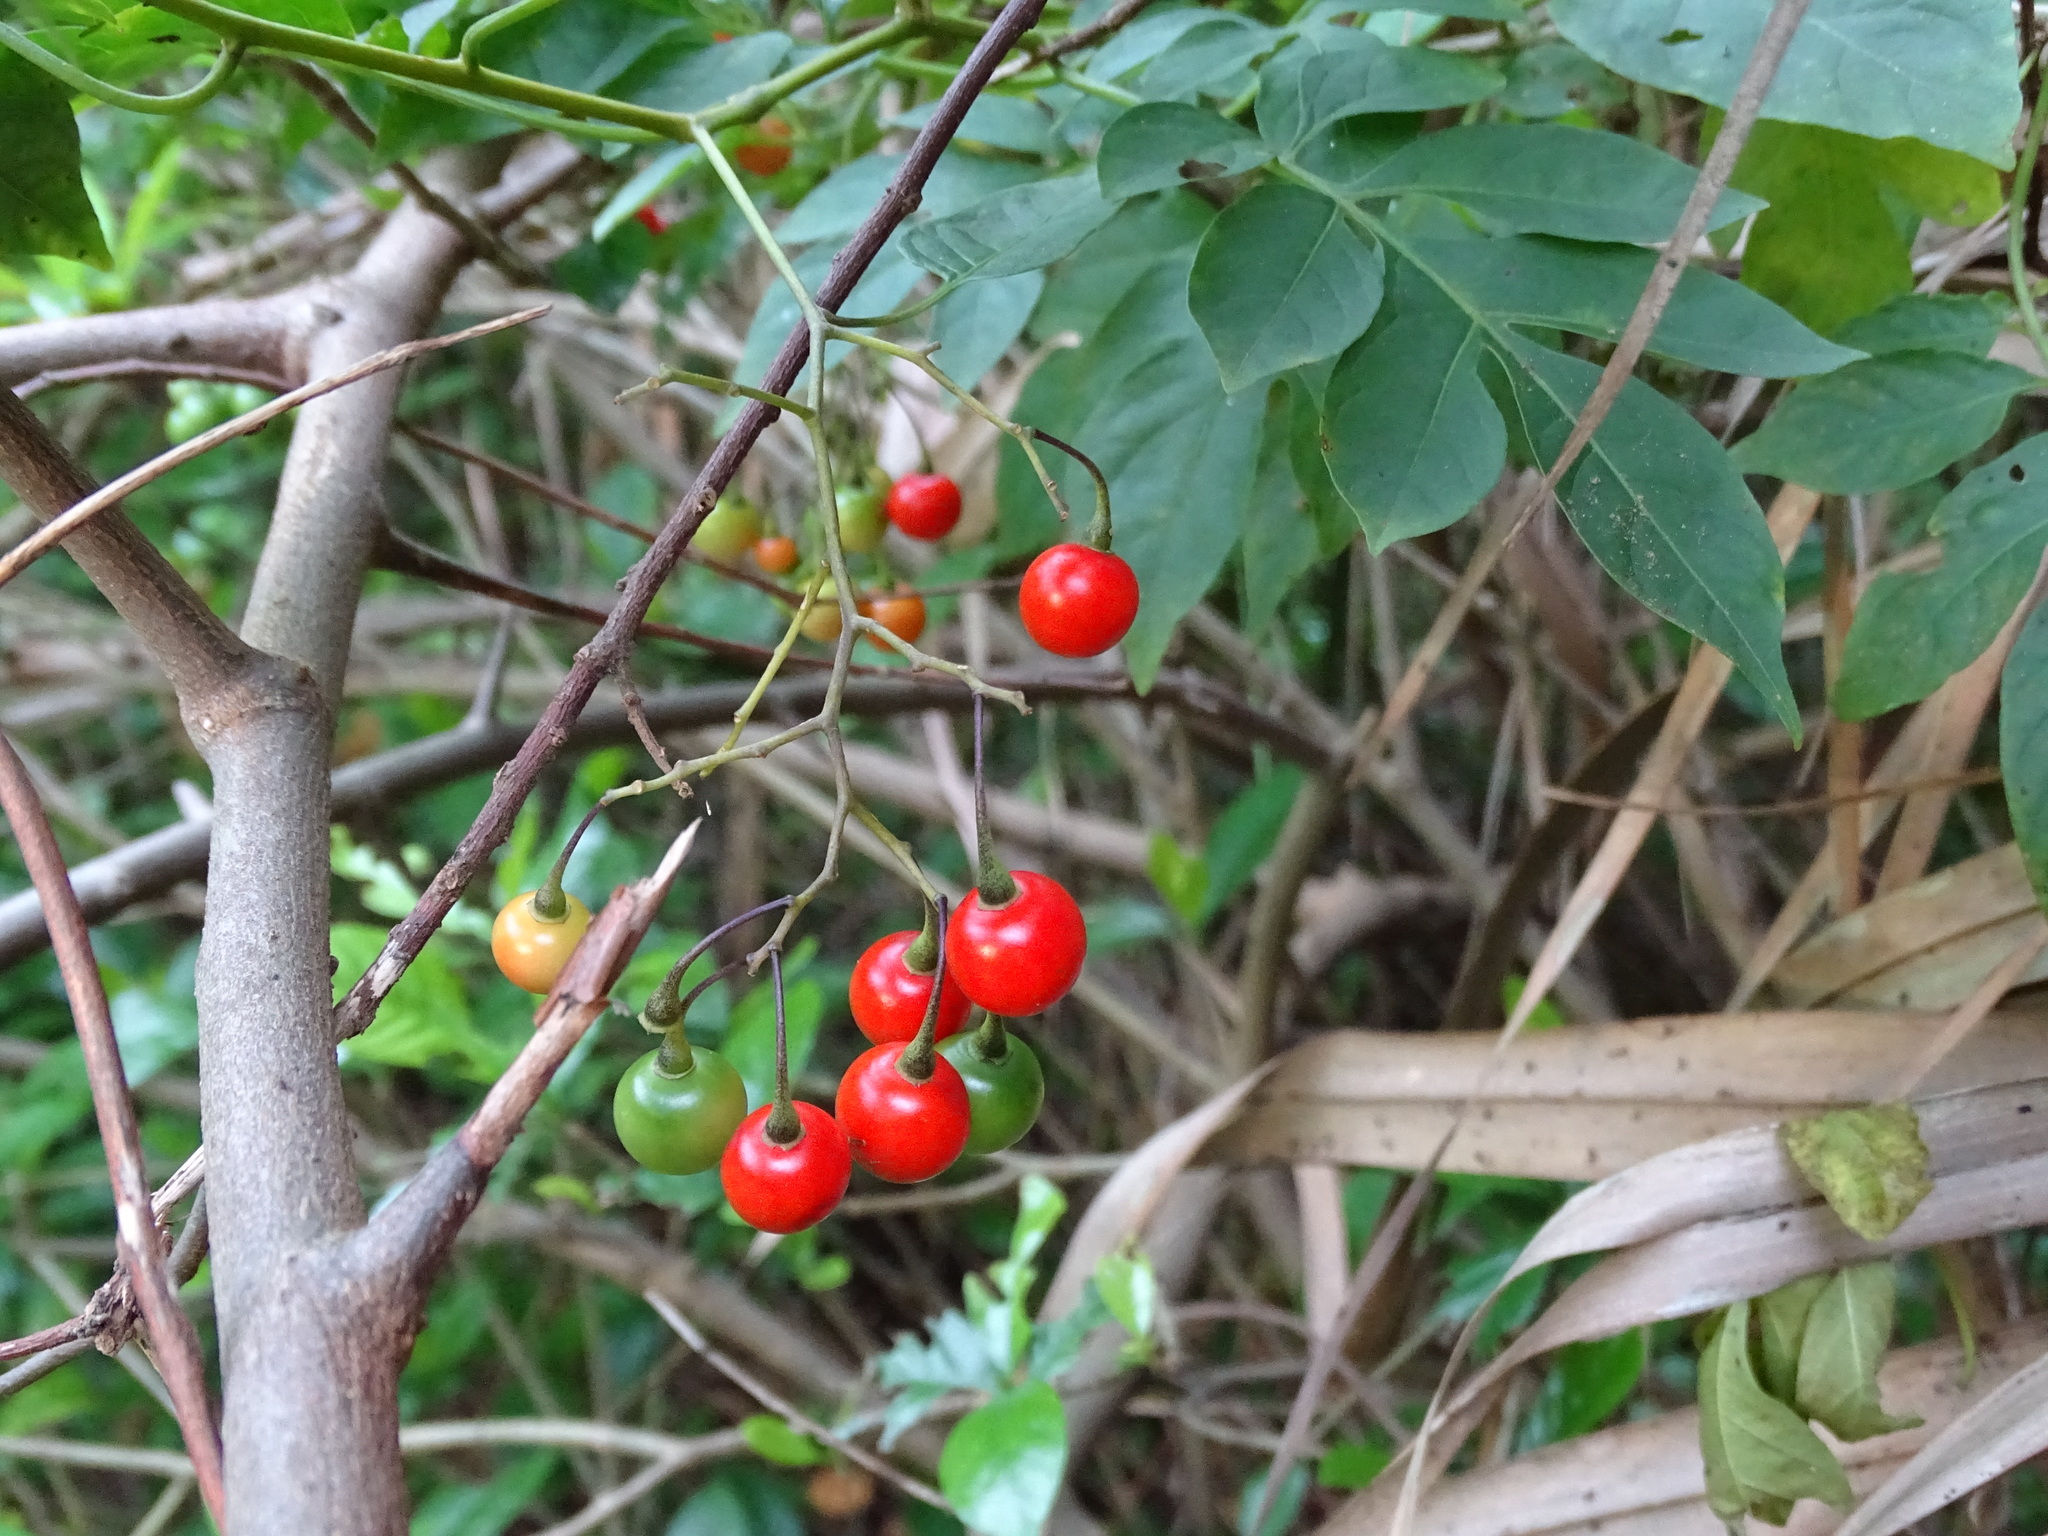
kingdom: Plantae
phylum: Tracheophyta
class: Magnoliopsida
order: Solanales
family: Solanaceae
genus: Solanum
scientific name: Solanum seaforthianum
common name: Brazilian nightshade
